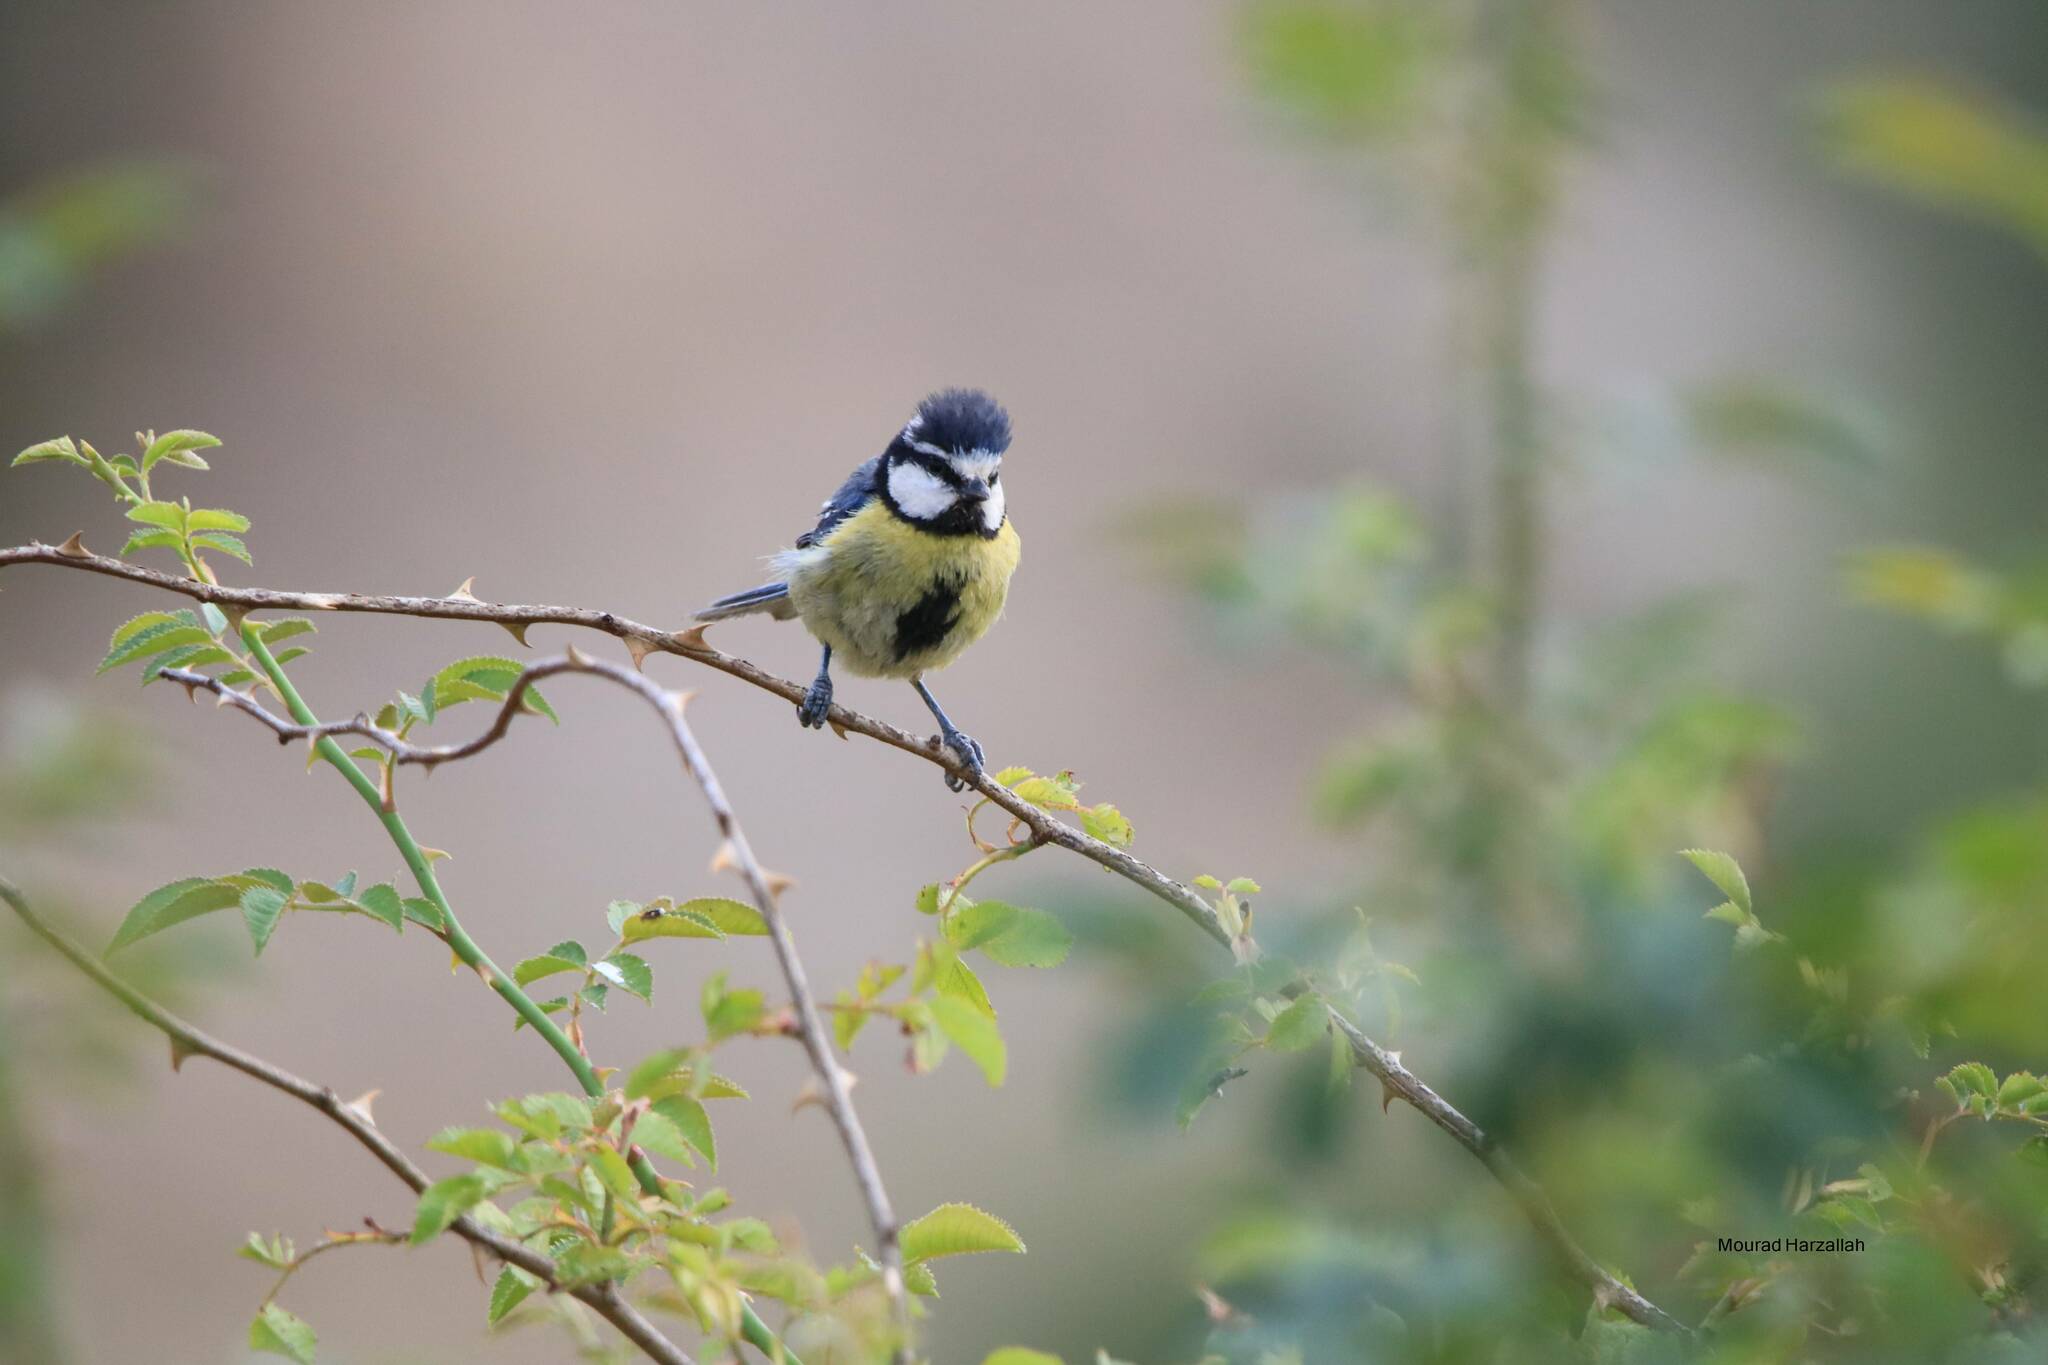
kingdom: Animalia
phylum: Chordata
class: Aves
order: Passeriformes
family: Paridae
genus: Cyanistes
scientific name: Cyanistes teneriffae
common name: African blue tit
